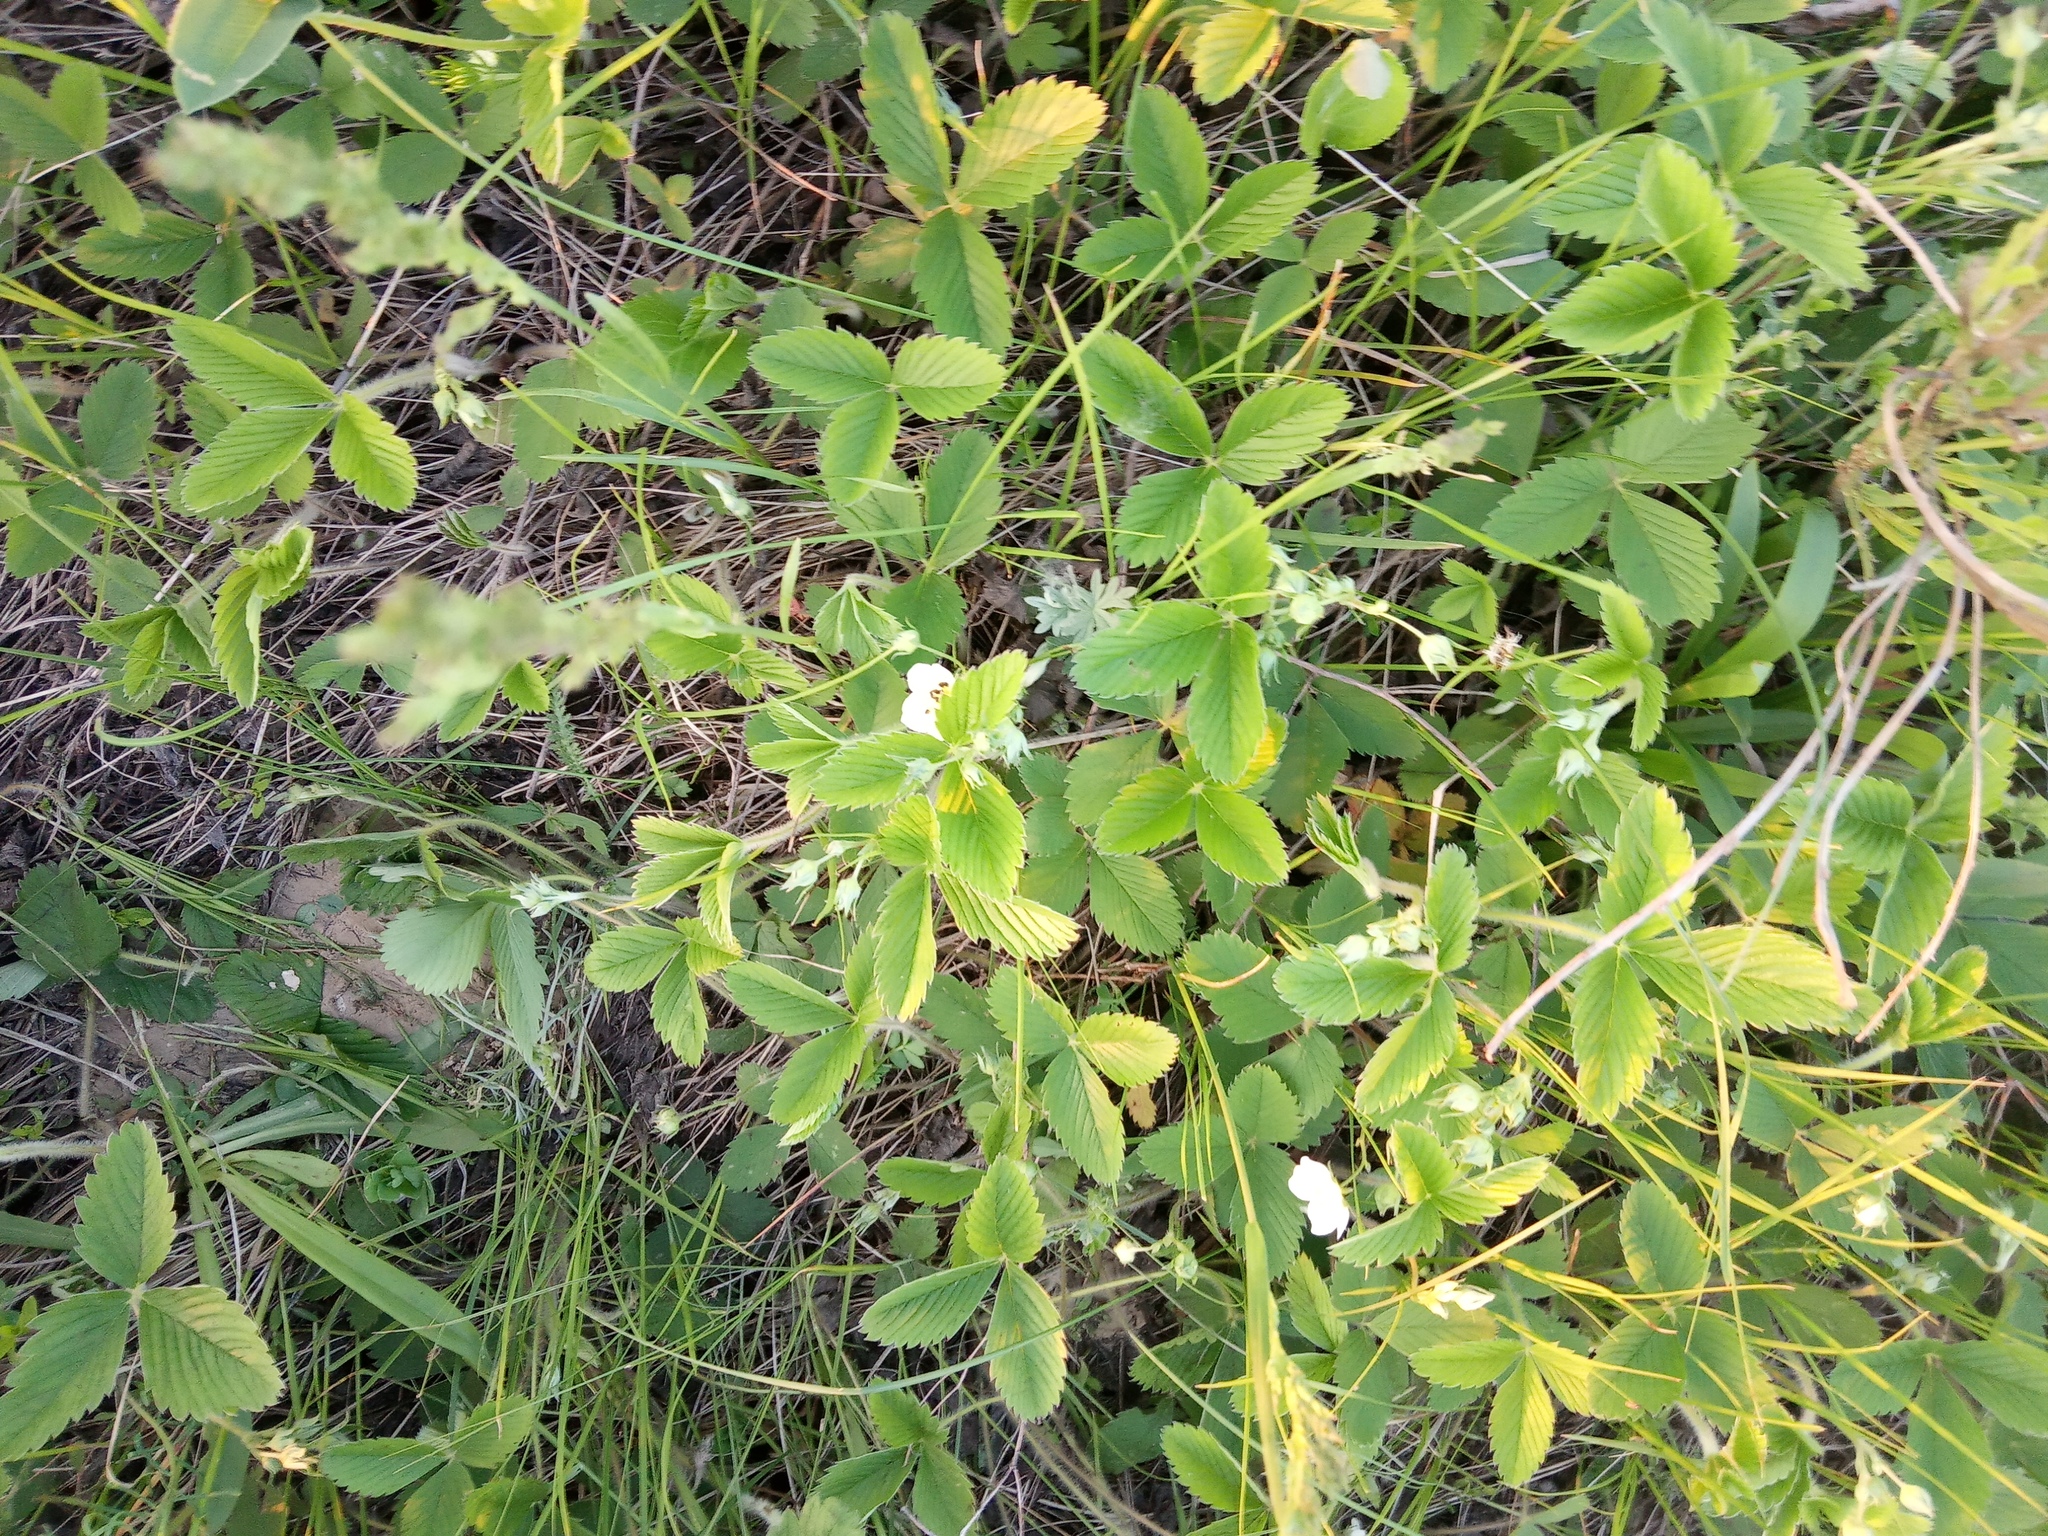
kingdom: Plantae
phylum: Tracheophyta
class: Magnoliopsida
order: Rosales
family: Rosaceae
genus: Fragaria
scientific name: Fragaria viridis
